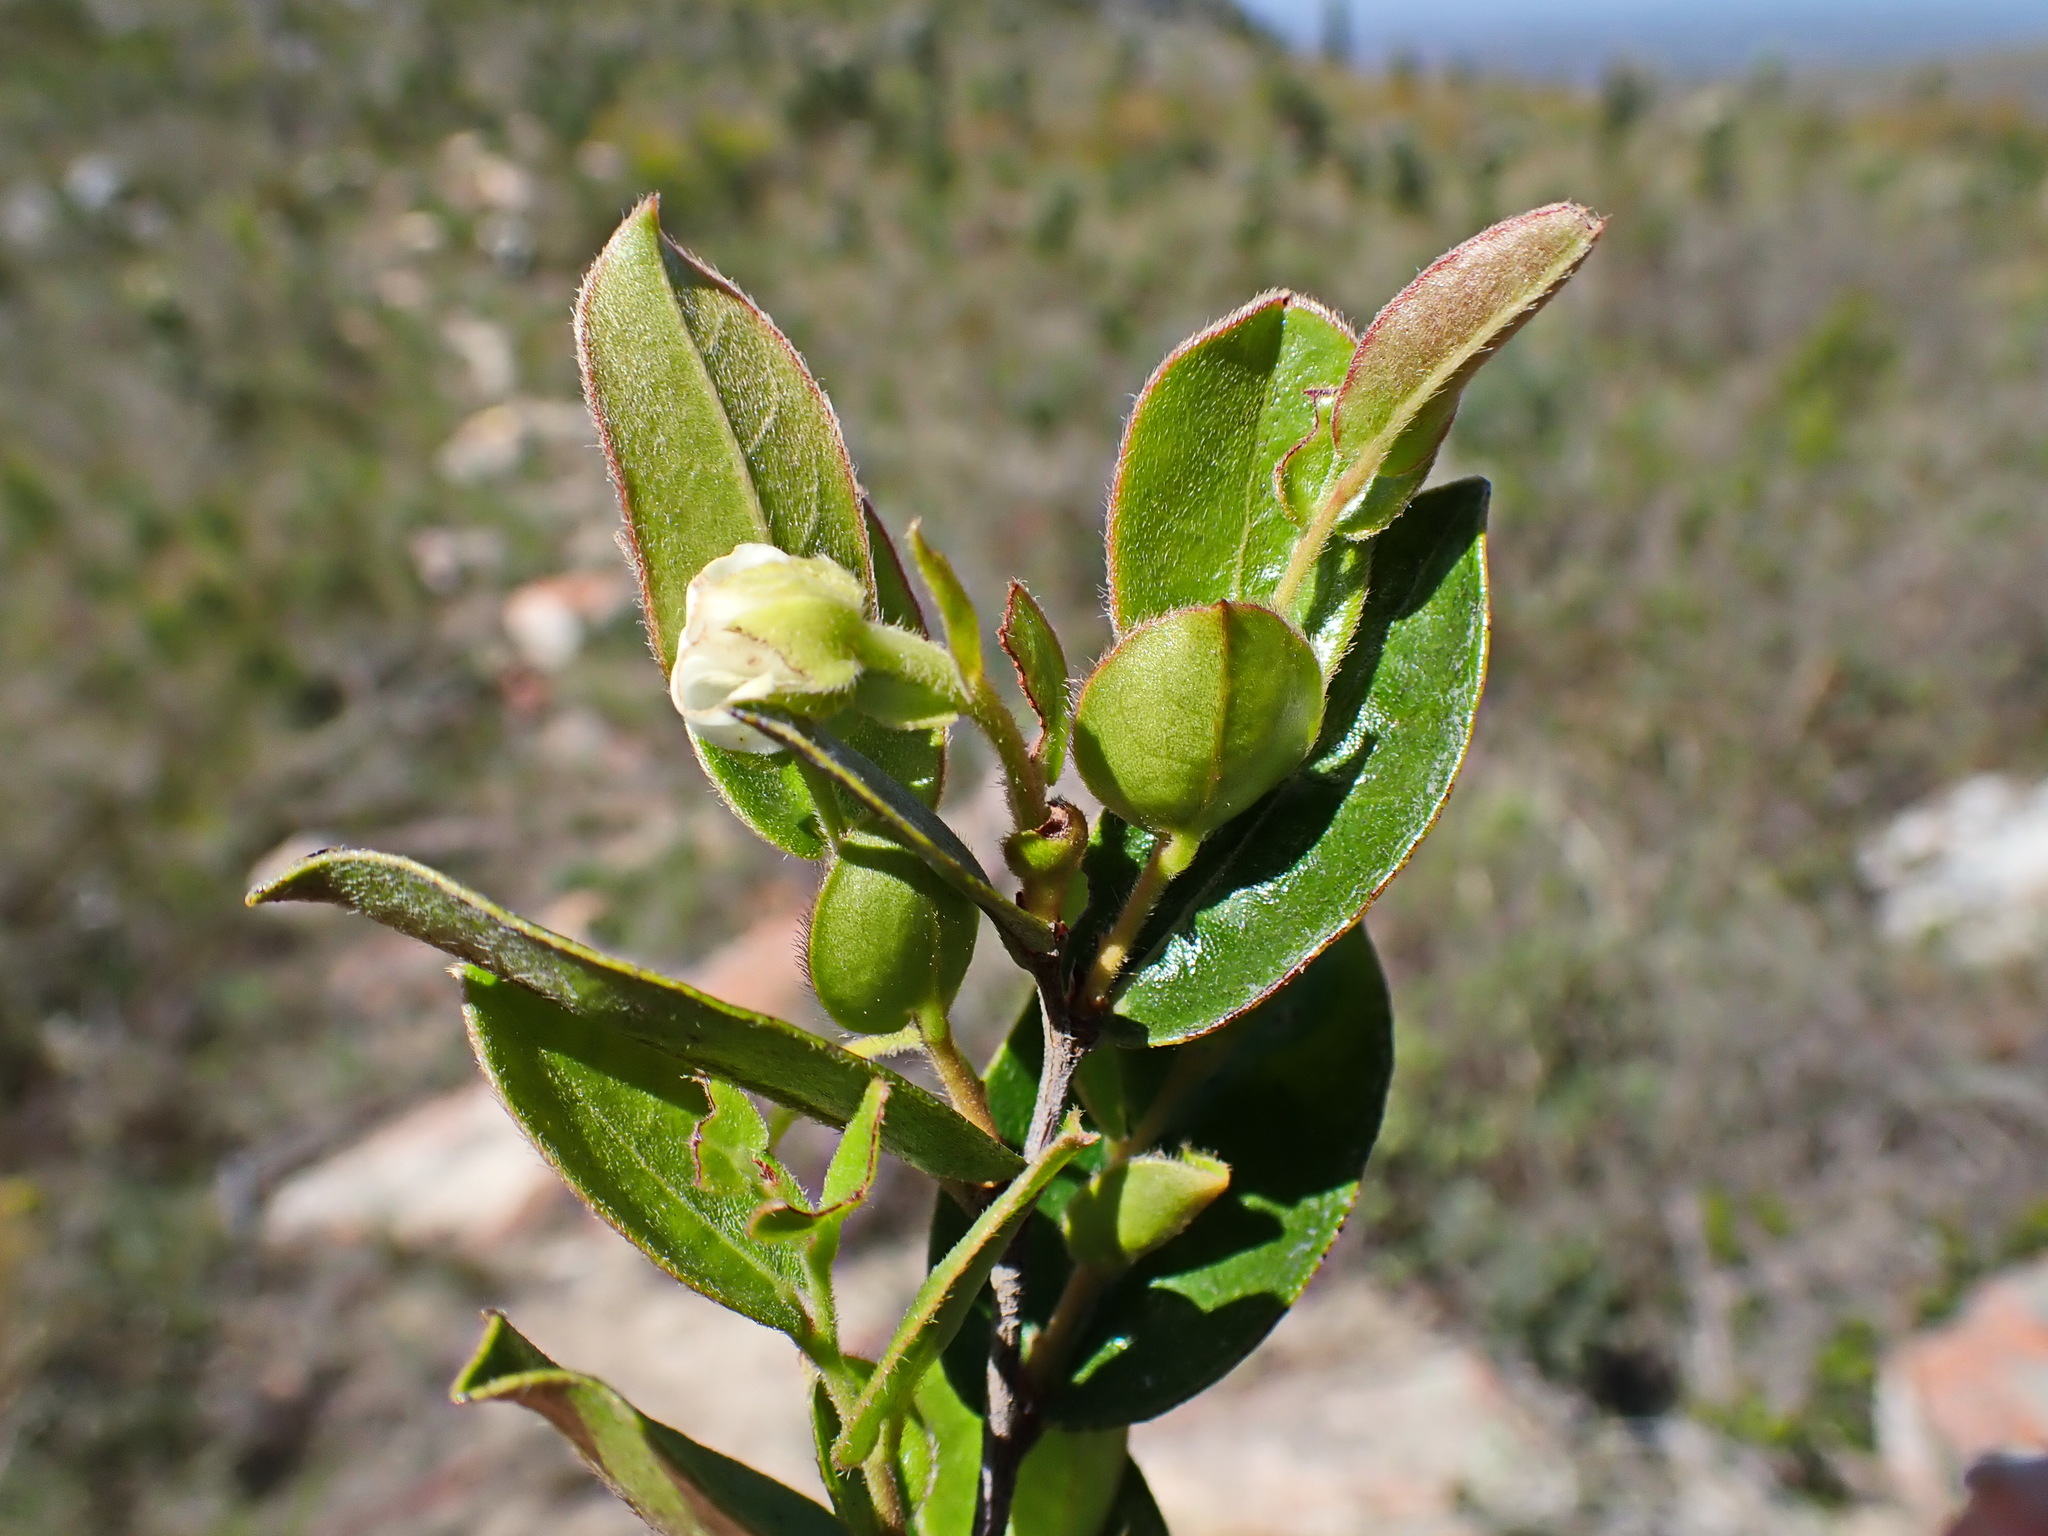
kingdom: Plantae
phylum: Tracheophyta
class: Magnoliopsida
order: Ericales
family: Ebenaceae
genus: Diospyros
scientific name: Diospyros scabrida
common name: Coastal bladder-nut
